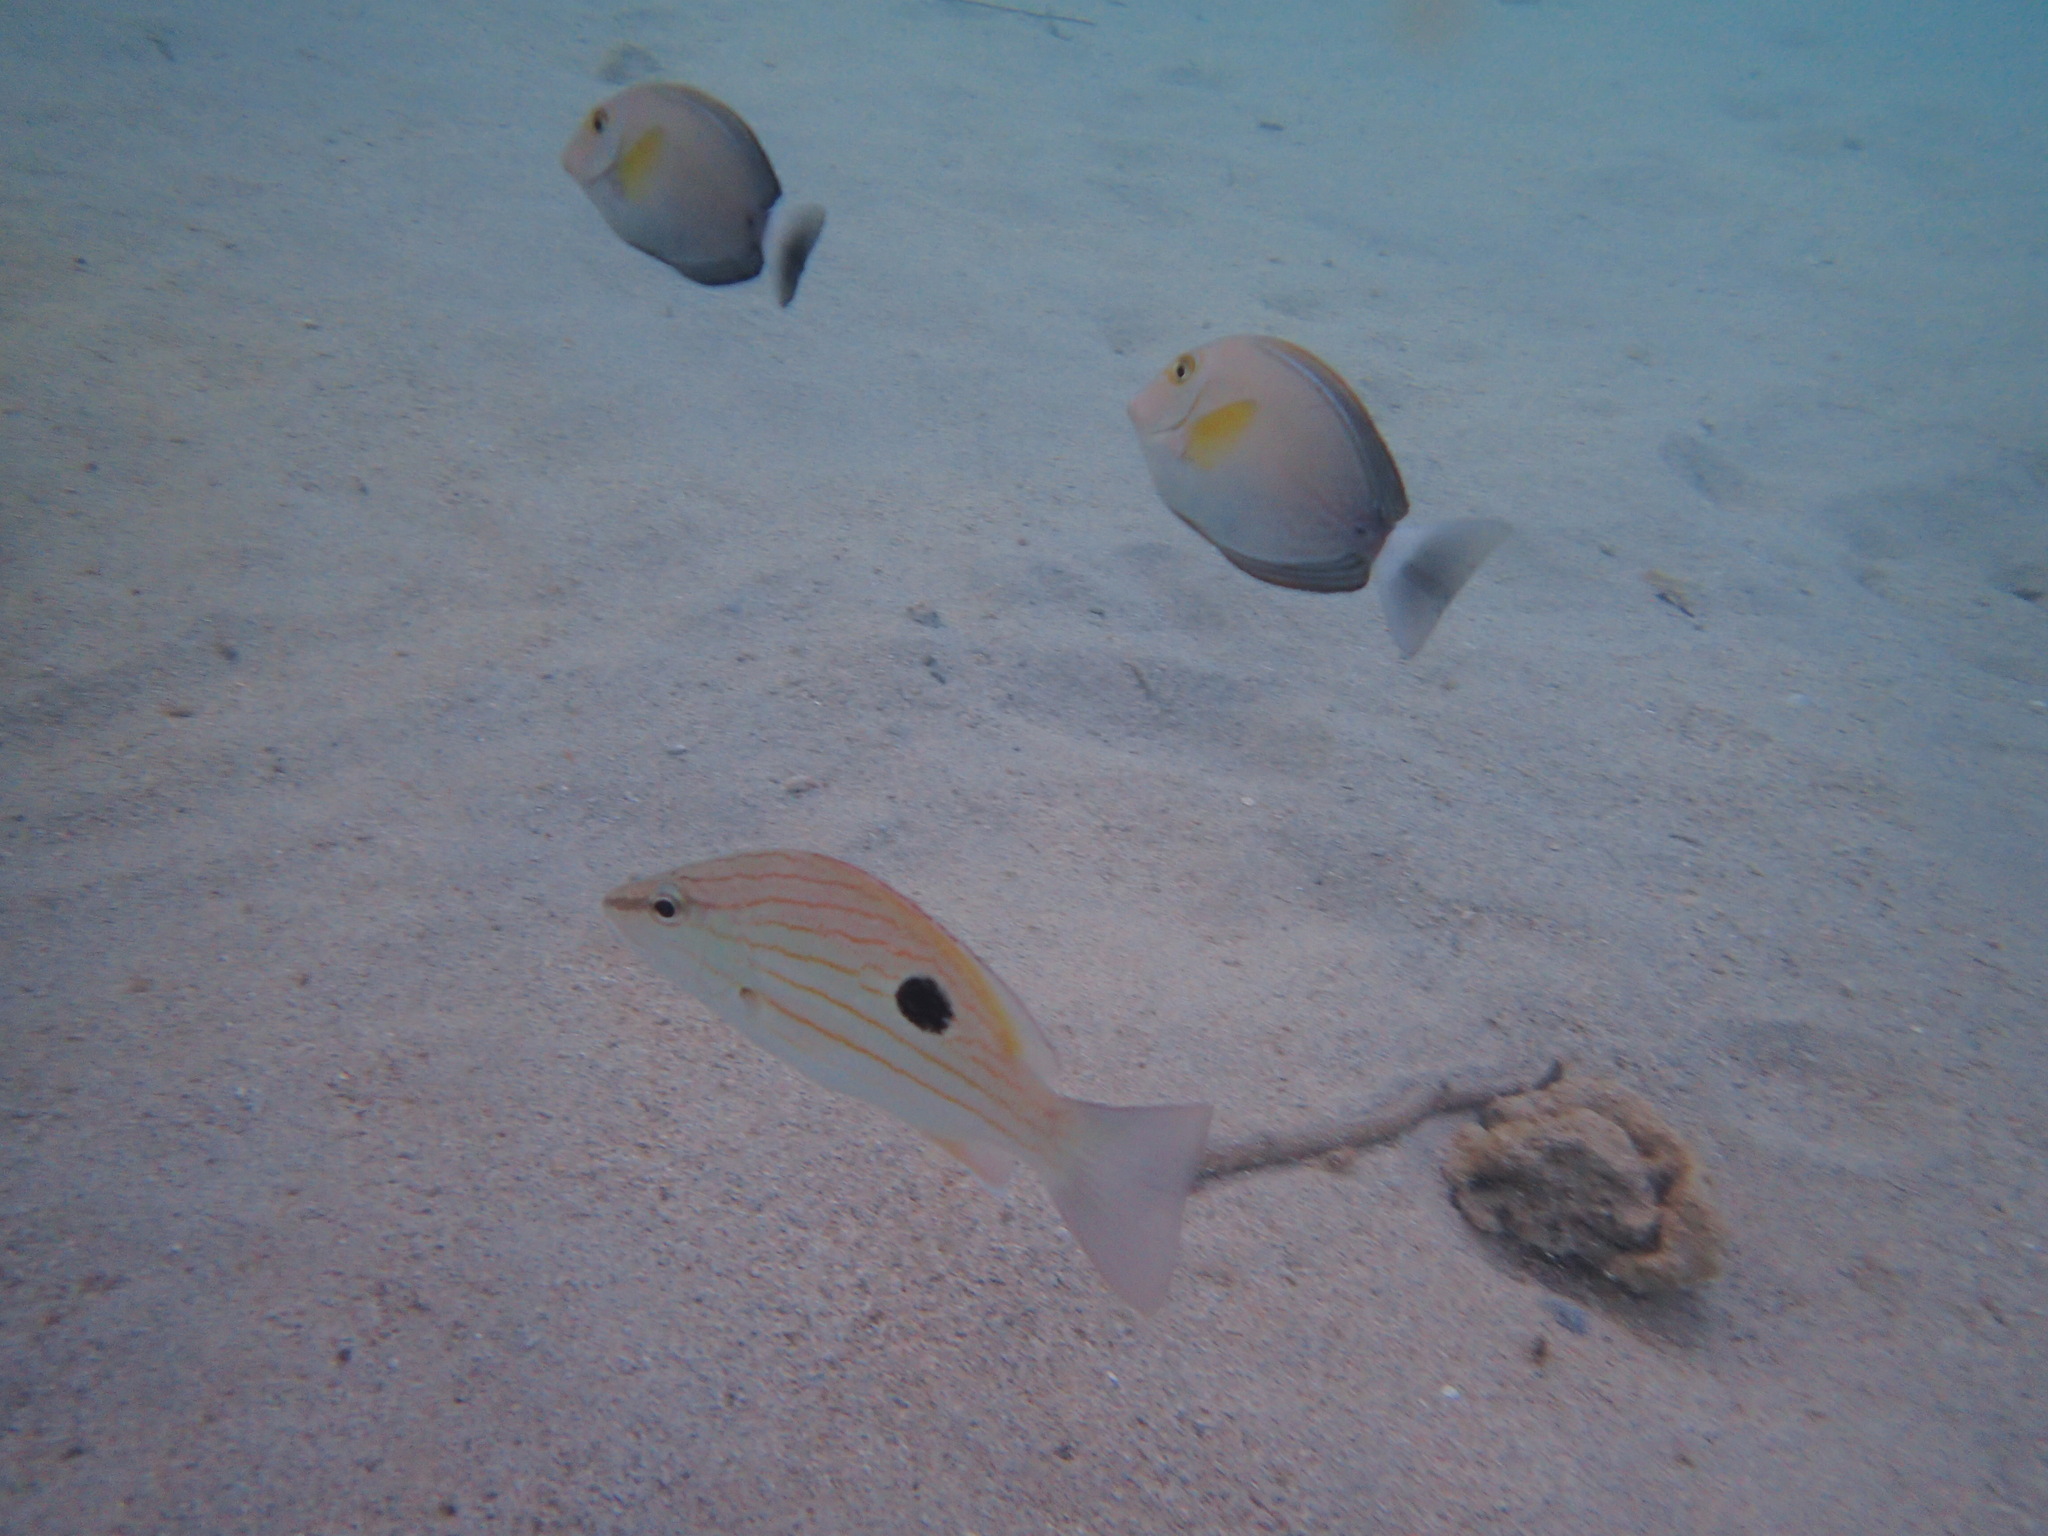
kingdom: Animalia
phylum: Chordata
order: Perciformes
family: Acanthuridae
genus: Acanthurus
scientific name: Acanthurus xanthopterus
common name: Cuvier's surgeonfish
